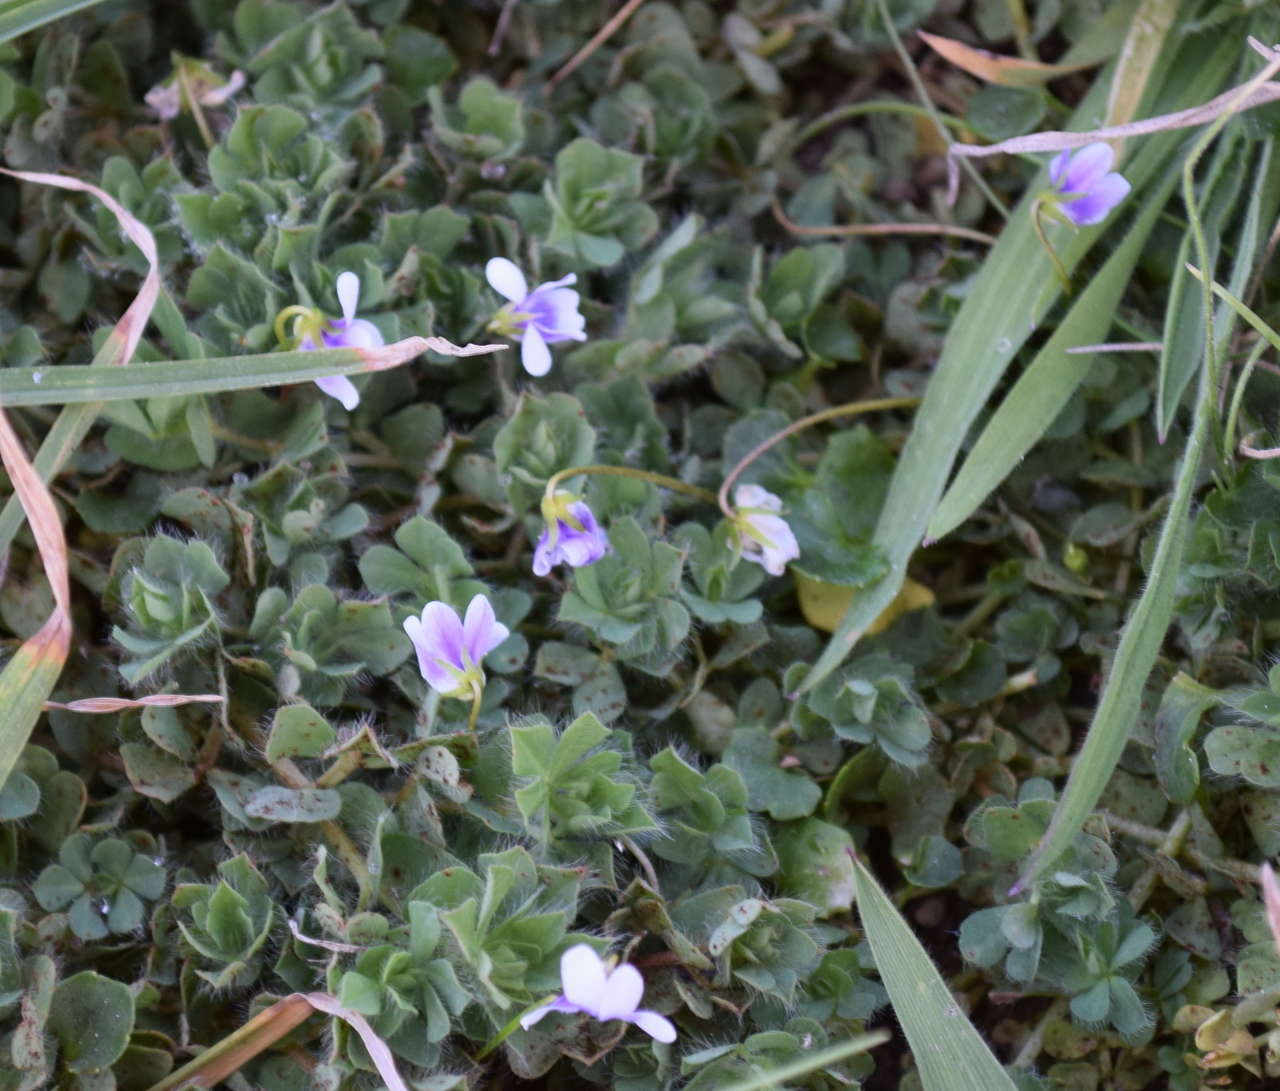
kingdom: Plantae
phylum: Tracheophyta
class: Magnoliopsida
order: Malpighiales
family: Violaceae
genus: Viola
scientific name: Viola hederacea
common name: Australian violet
